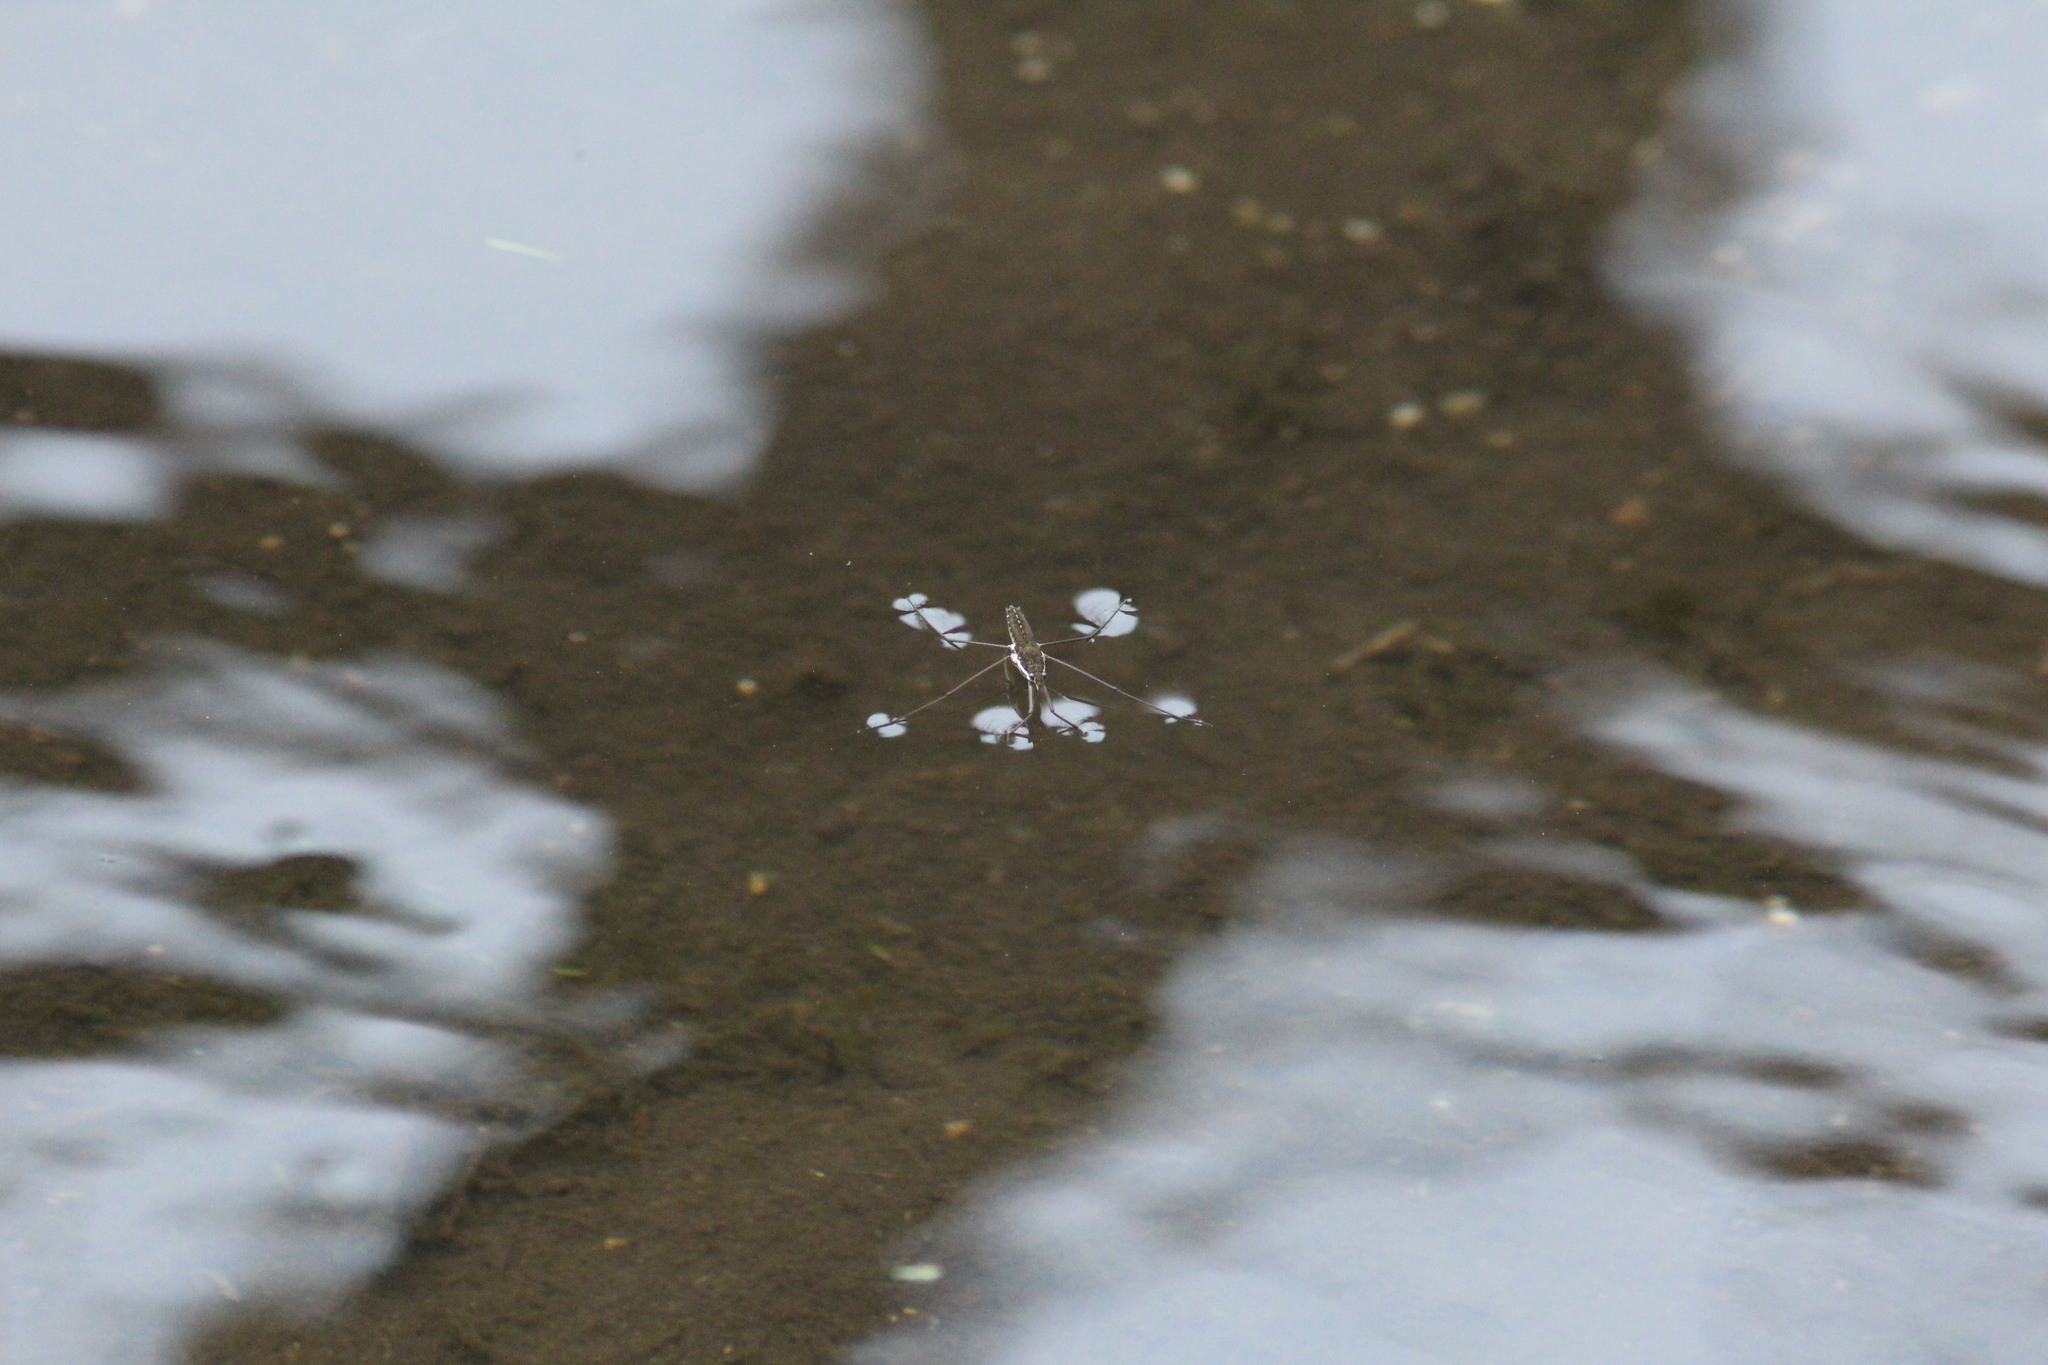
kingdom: Animalia
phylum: Arthropoda
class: Insecta
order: Hemiptera
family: Gerridae
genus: Aquarius
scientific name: Aquarius remigis
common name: Common water strider
